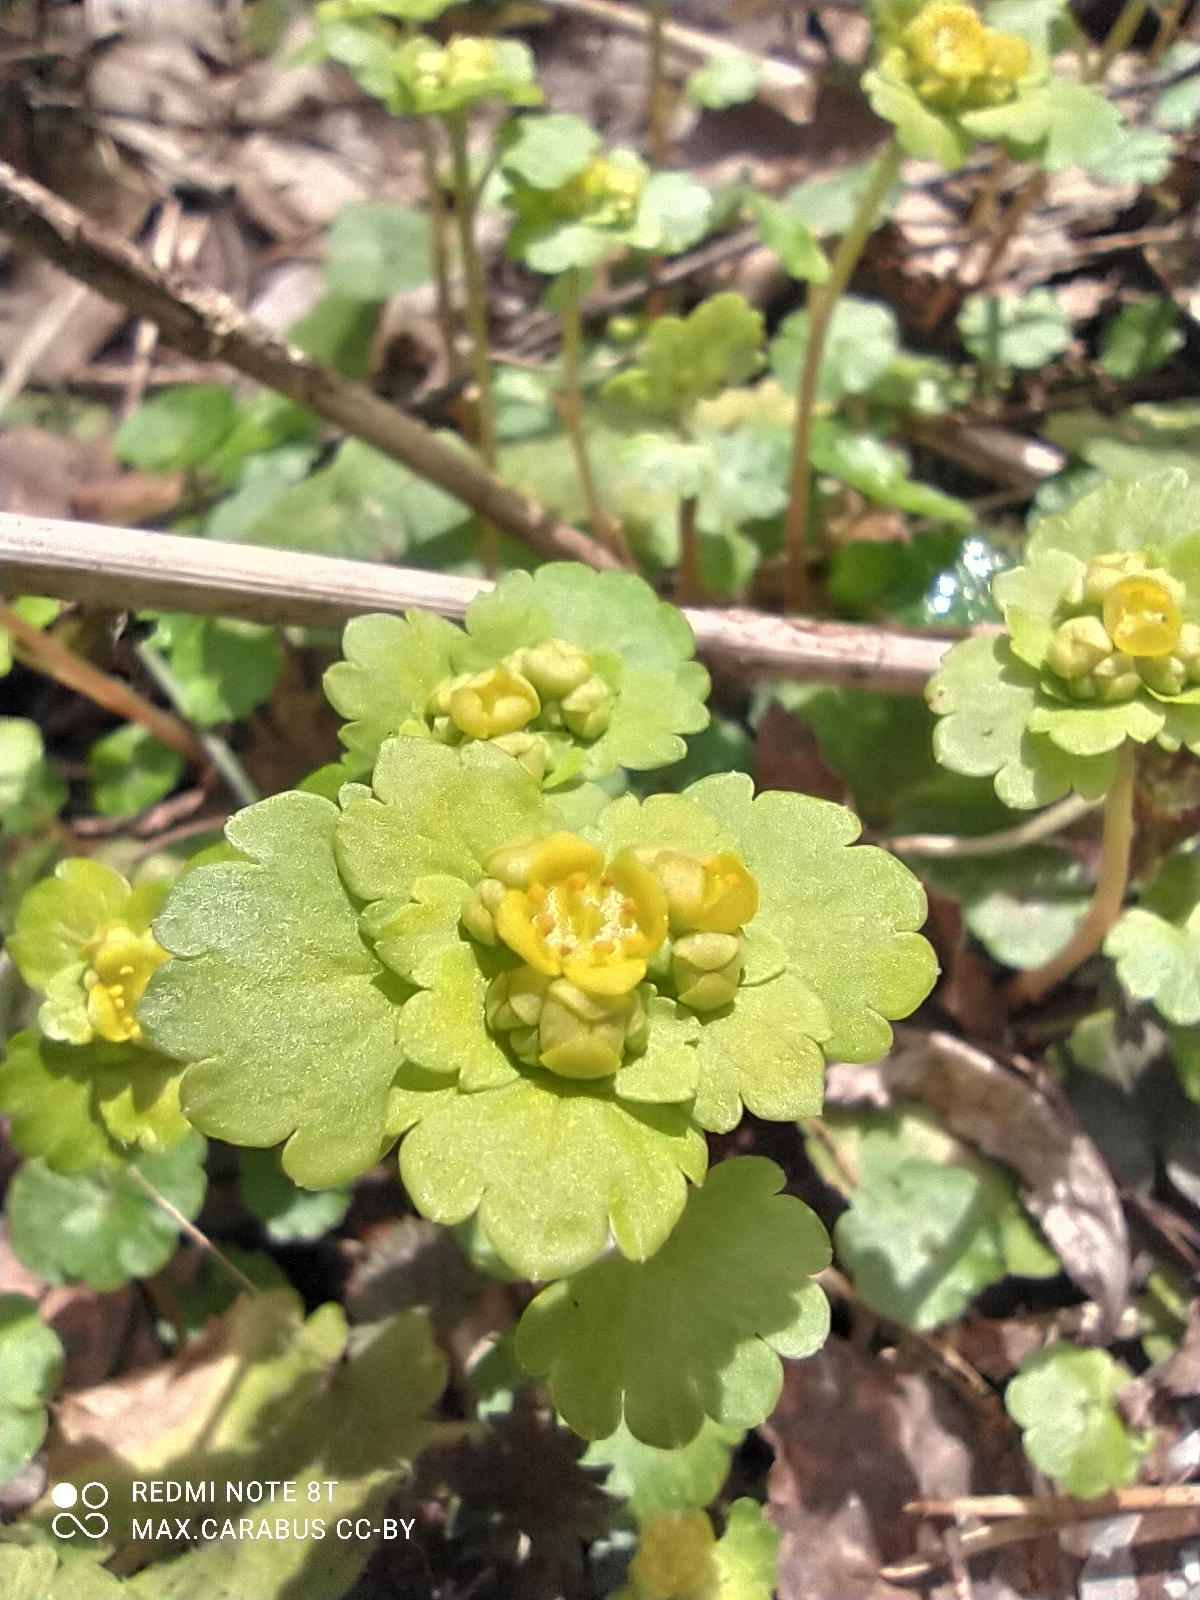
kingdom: Plantae
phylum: Tracheophyta
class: Magnoliopsida
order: Saxifragales
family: Saxifragaceae
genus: Chrysosplenium
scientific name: Chrysosplenium alternifolium
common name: Alternate-leaved golden-saxifrage
